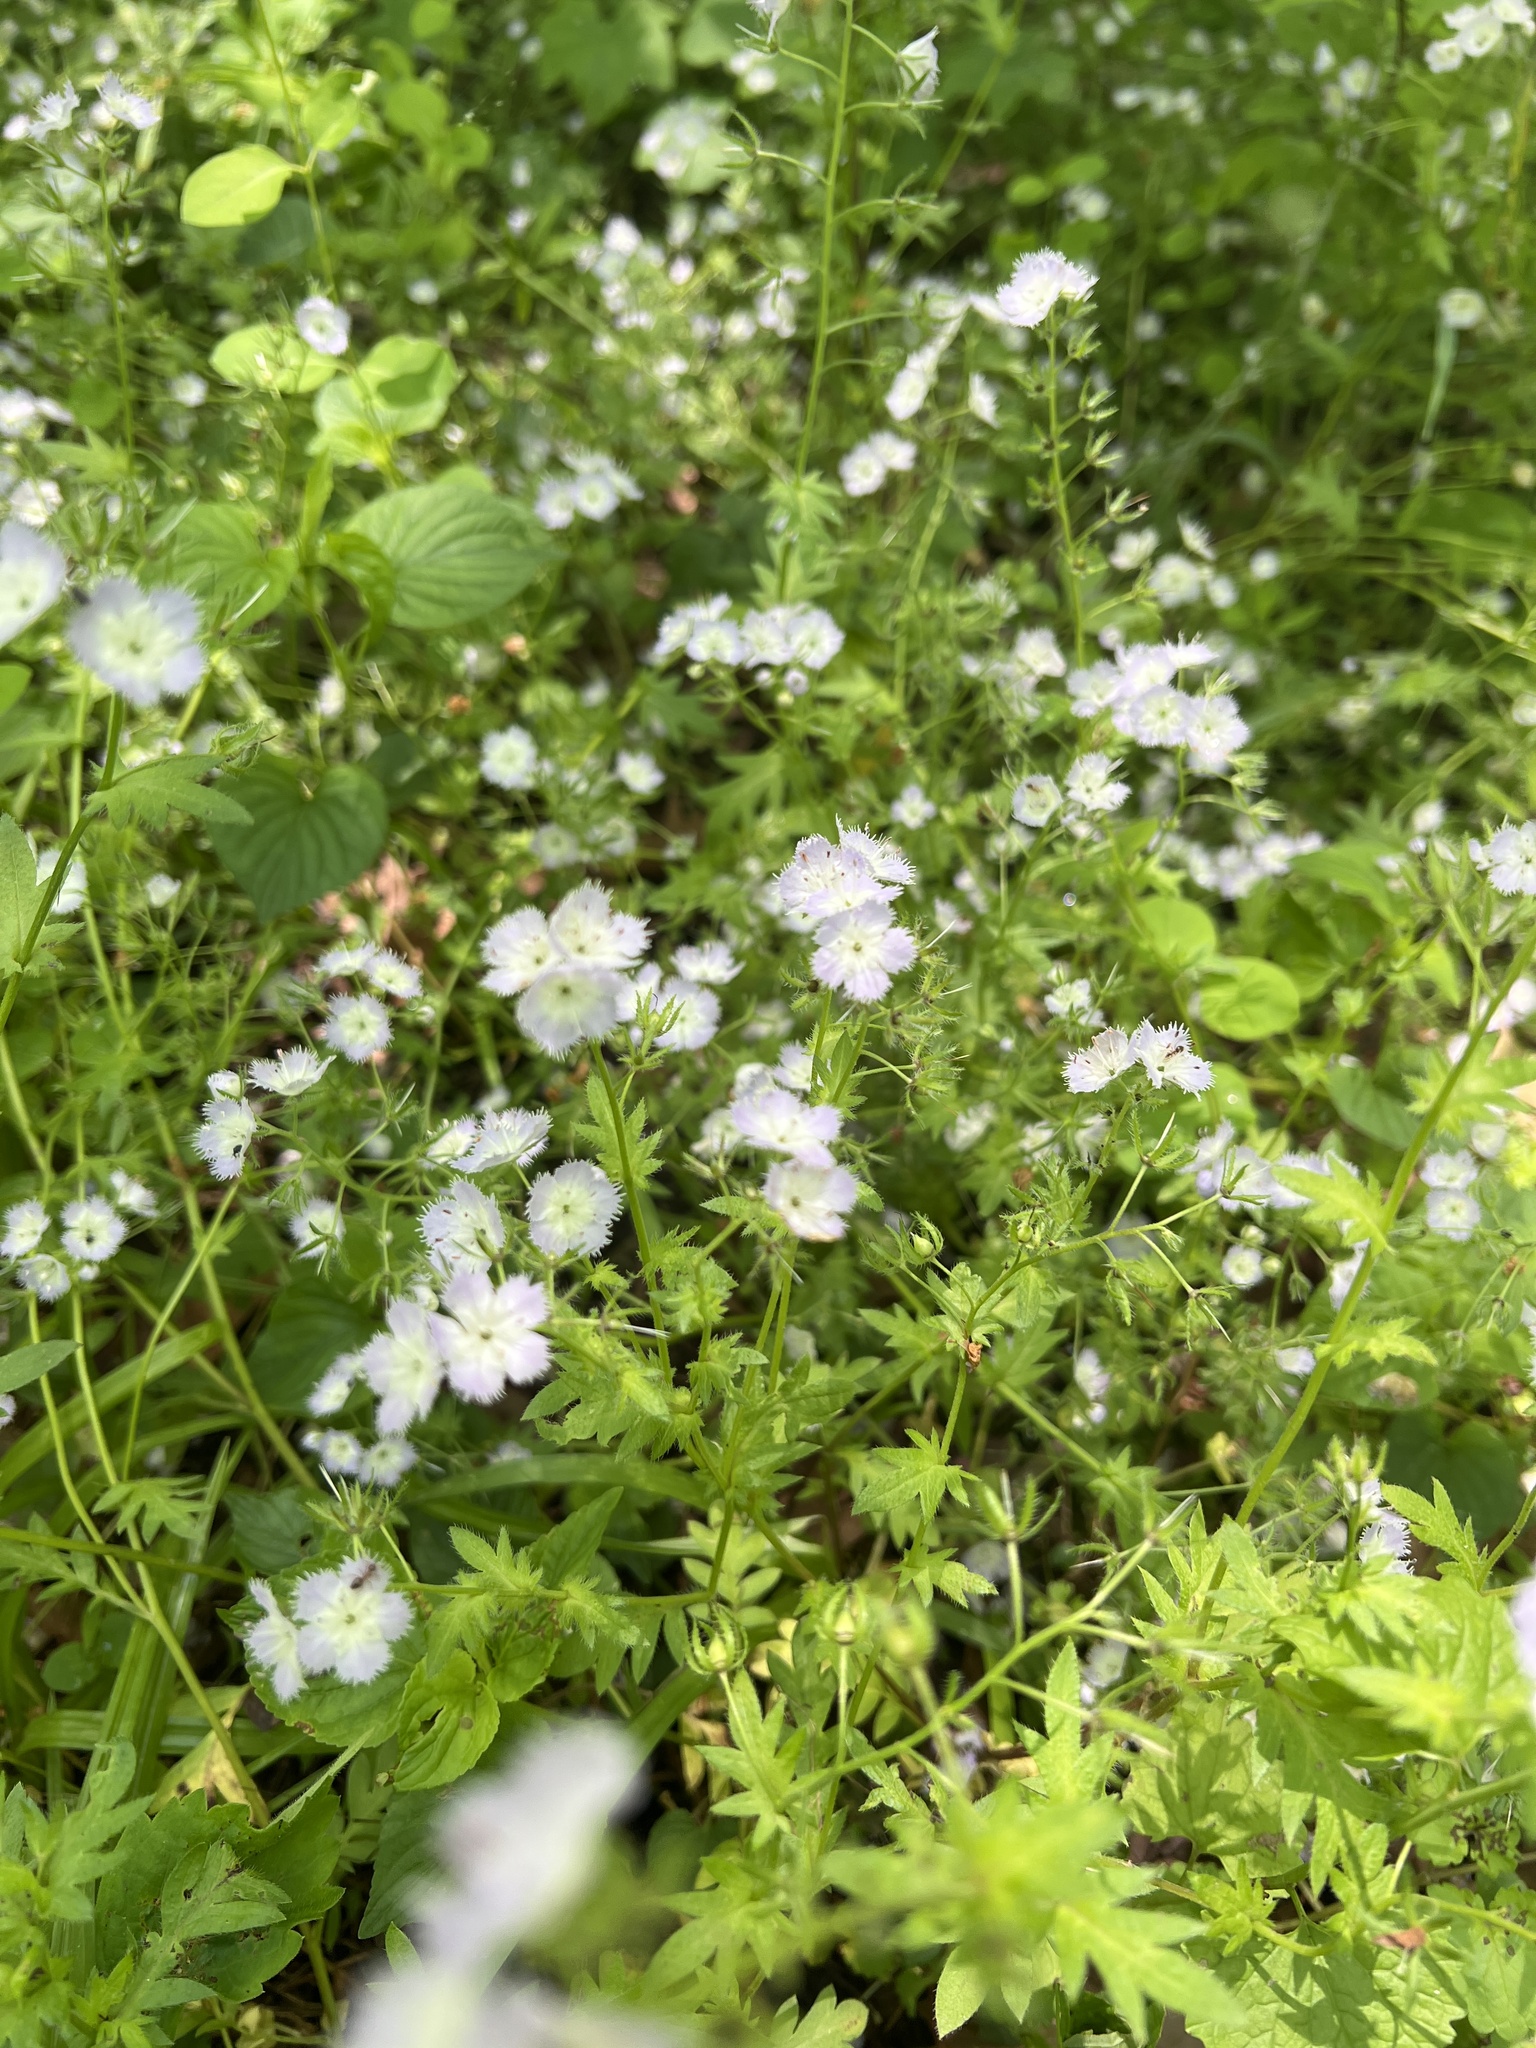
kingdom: Plantae
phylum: Tracheophyta
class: Magnoliopsida
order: Boraginales
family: Hydrophyllaceae
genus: Phacelia
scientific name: Phacelia purshii
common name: Miami-mist
